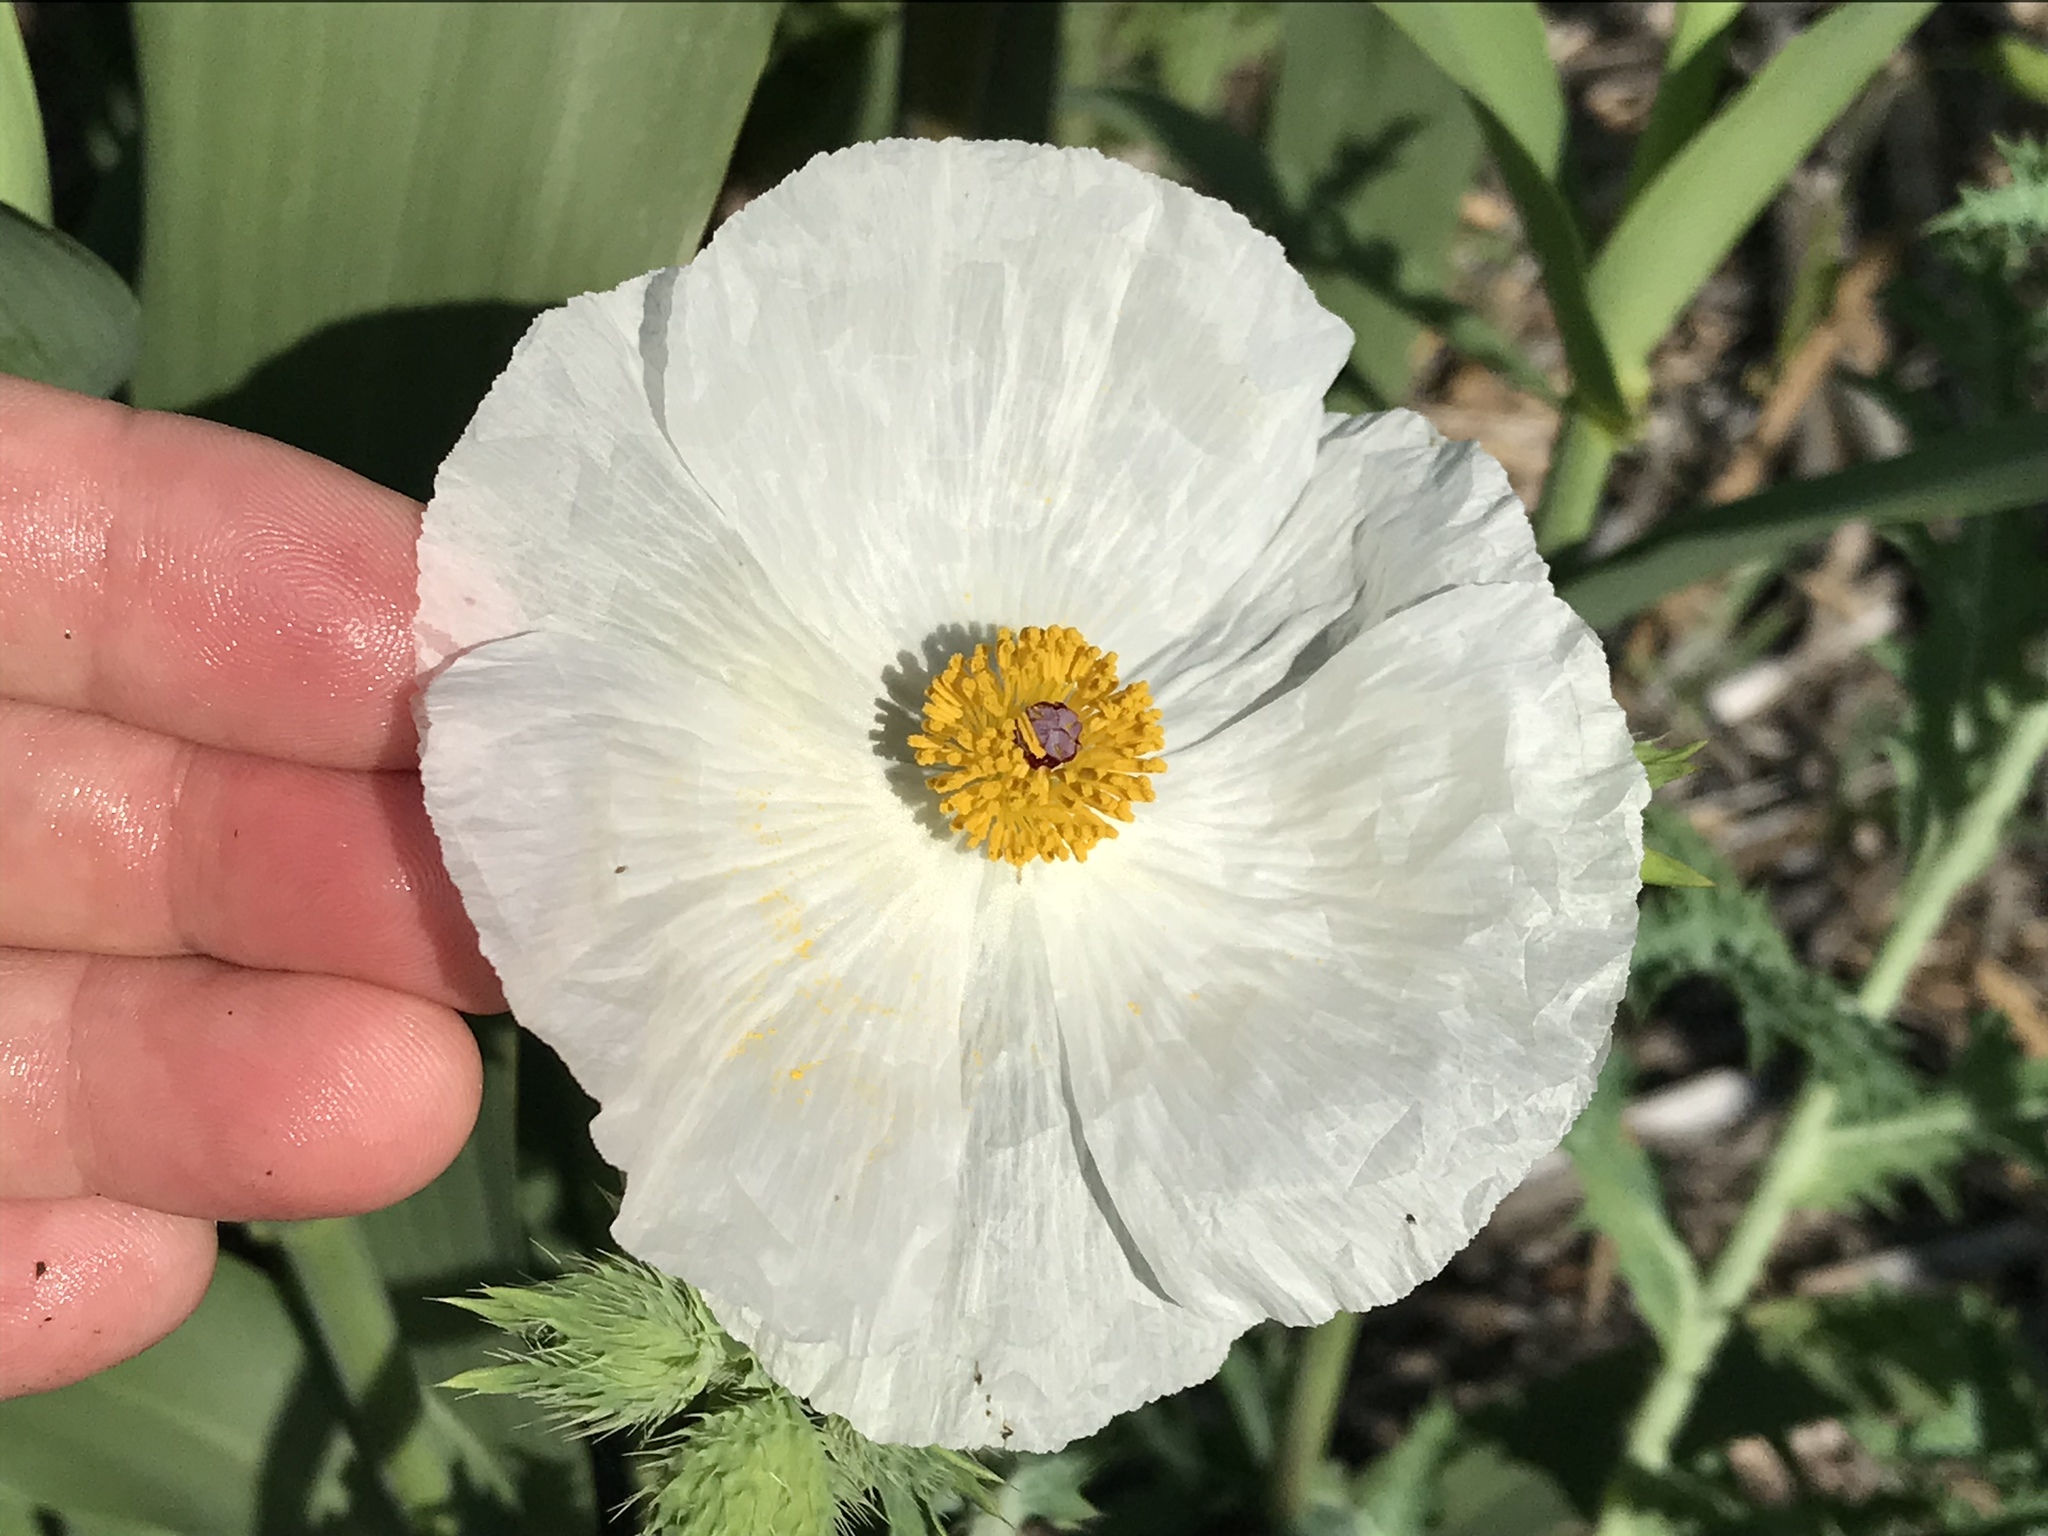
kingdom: Plantae
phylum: Tracheophyta
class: Magnoliopsida
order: Ranunculales
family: Papaveraceae
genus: Argemone
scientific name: Argemone albiflora
